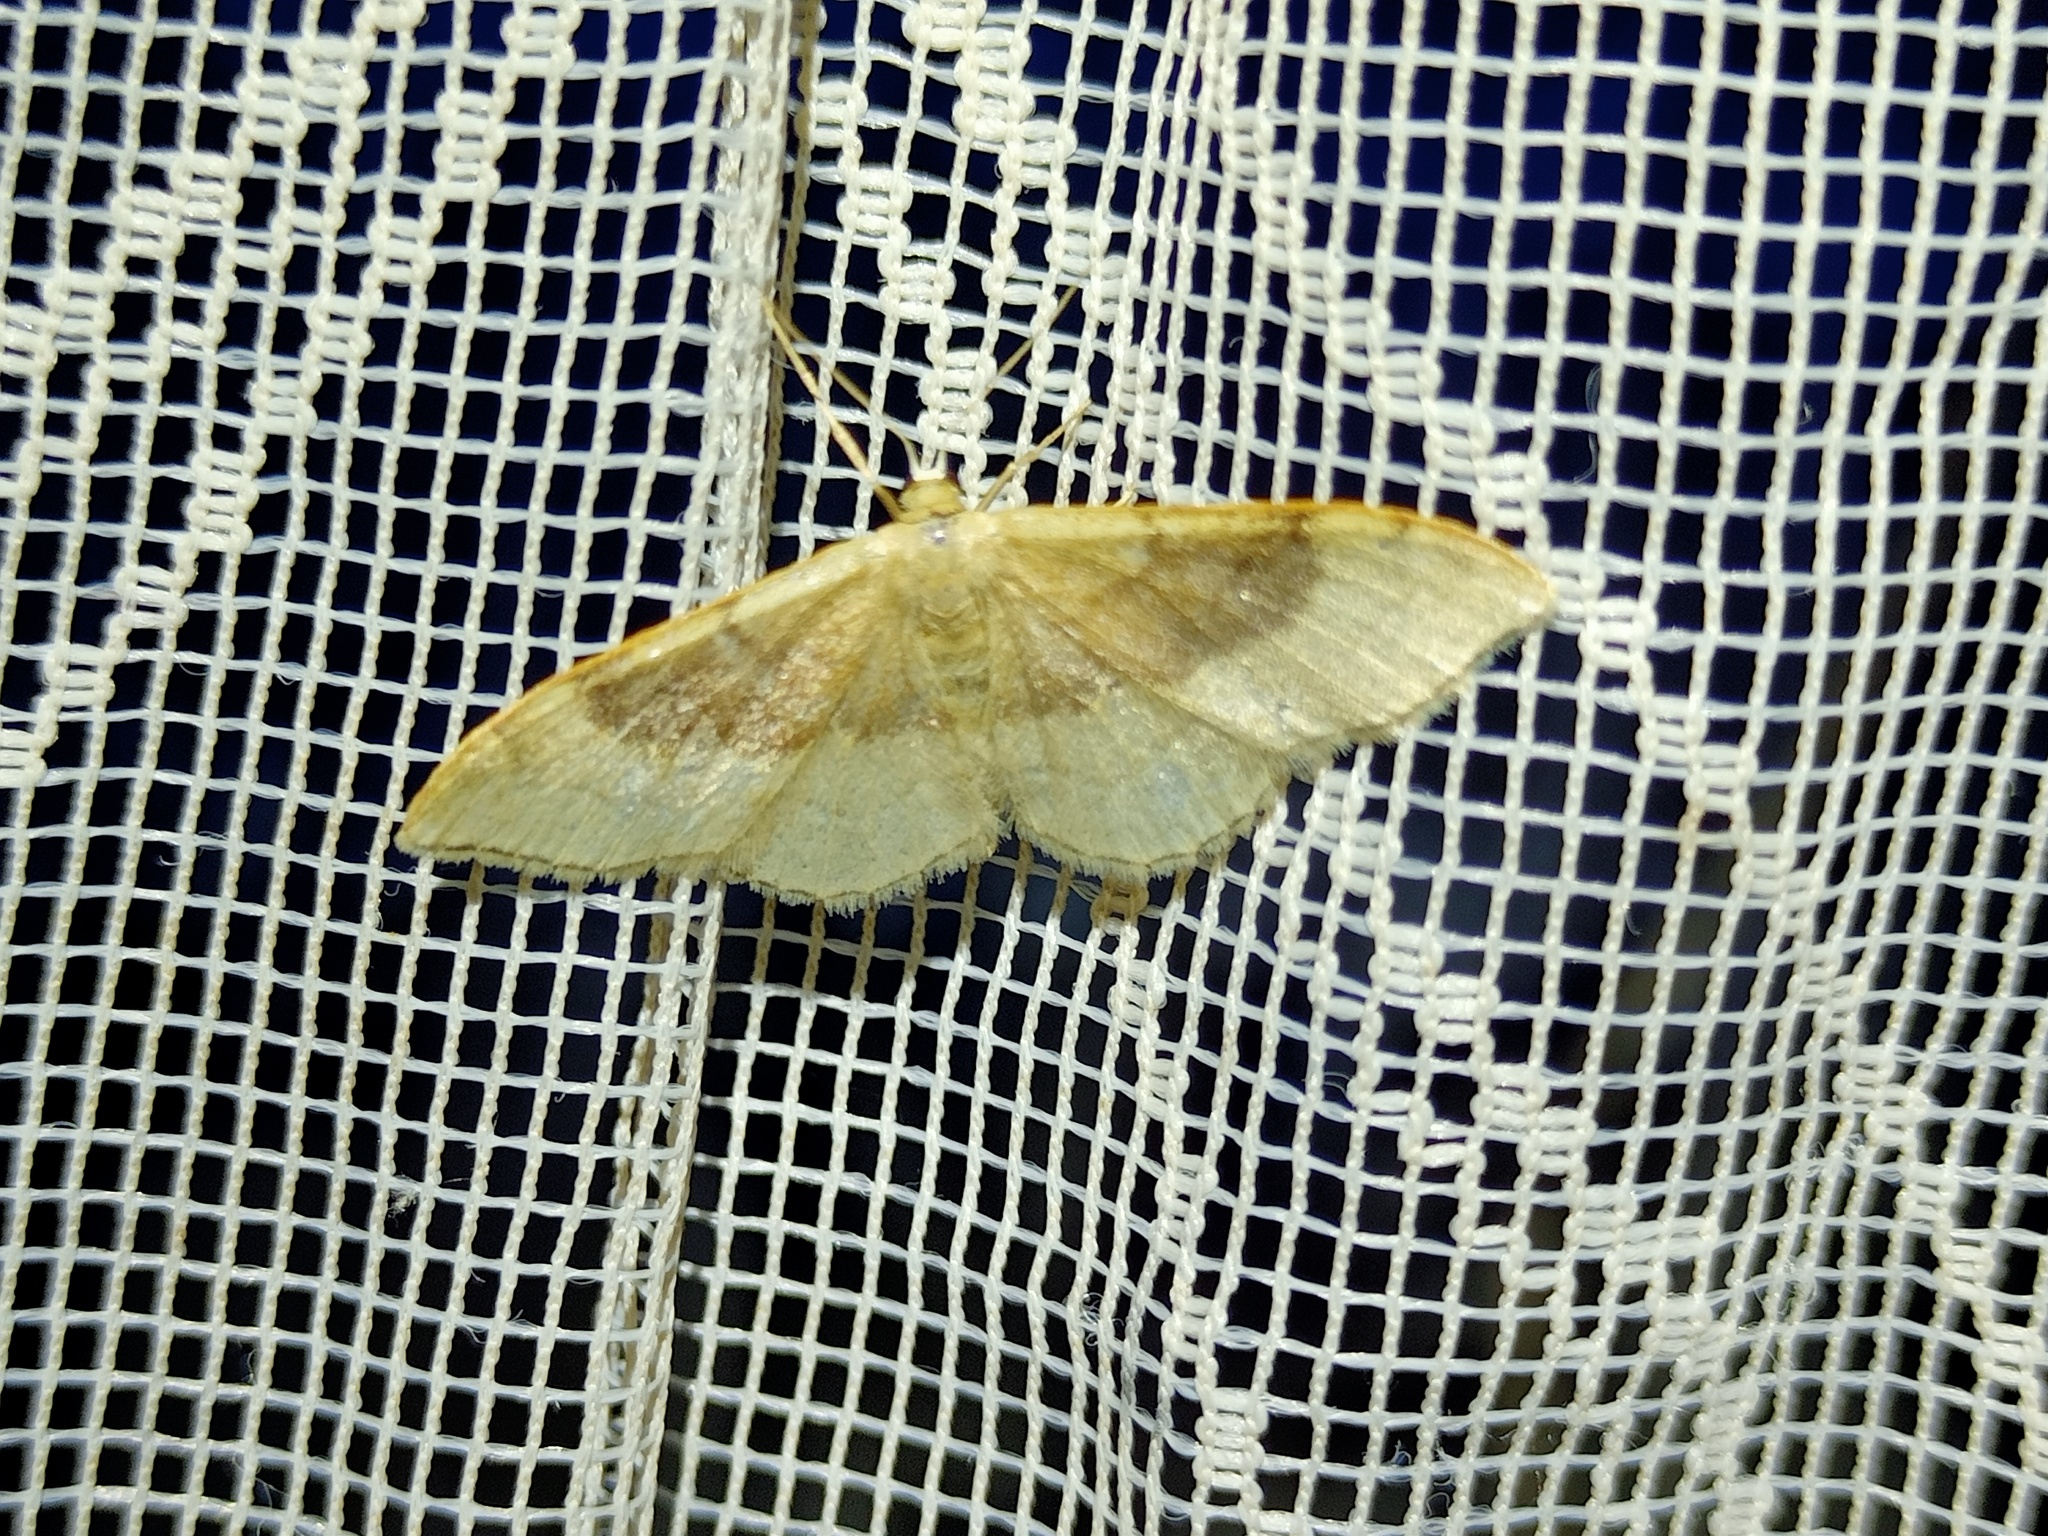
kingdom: Animalia
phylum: Arthropoda
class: Insecta
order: Lepidoptera
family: Geometridae
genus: Idaea
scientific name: Idaea degeneraria
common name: Portland ribbon wave
